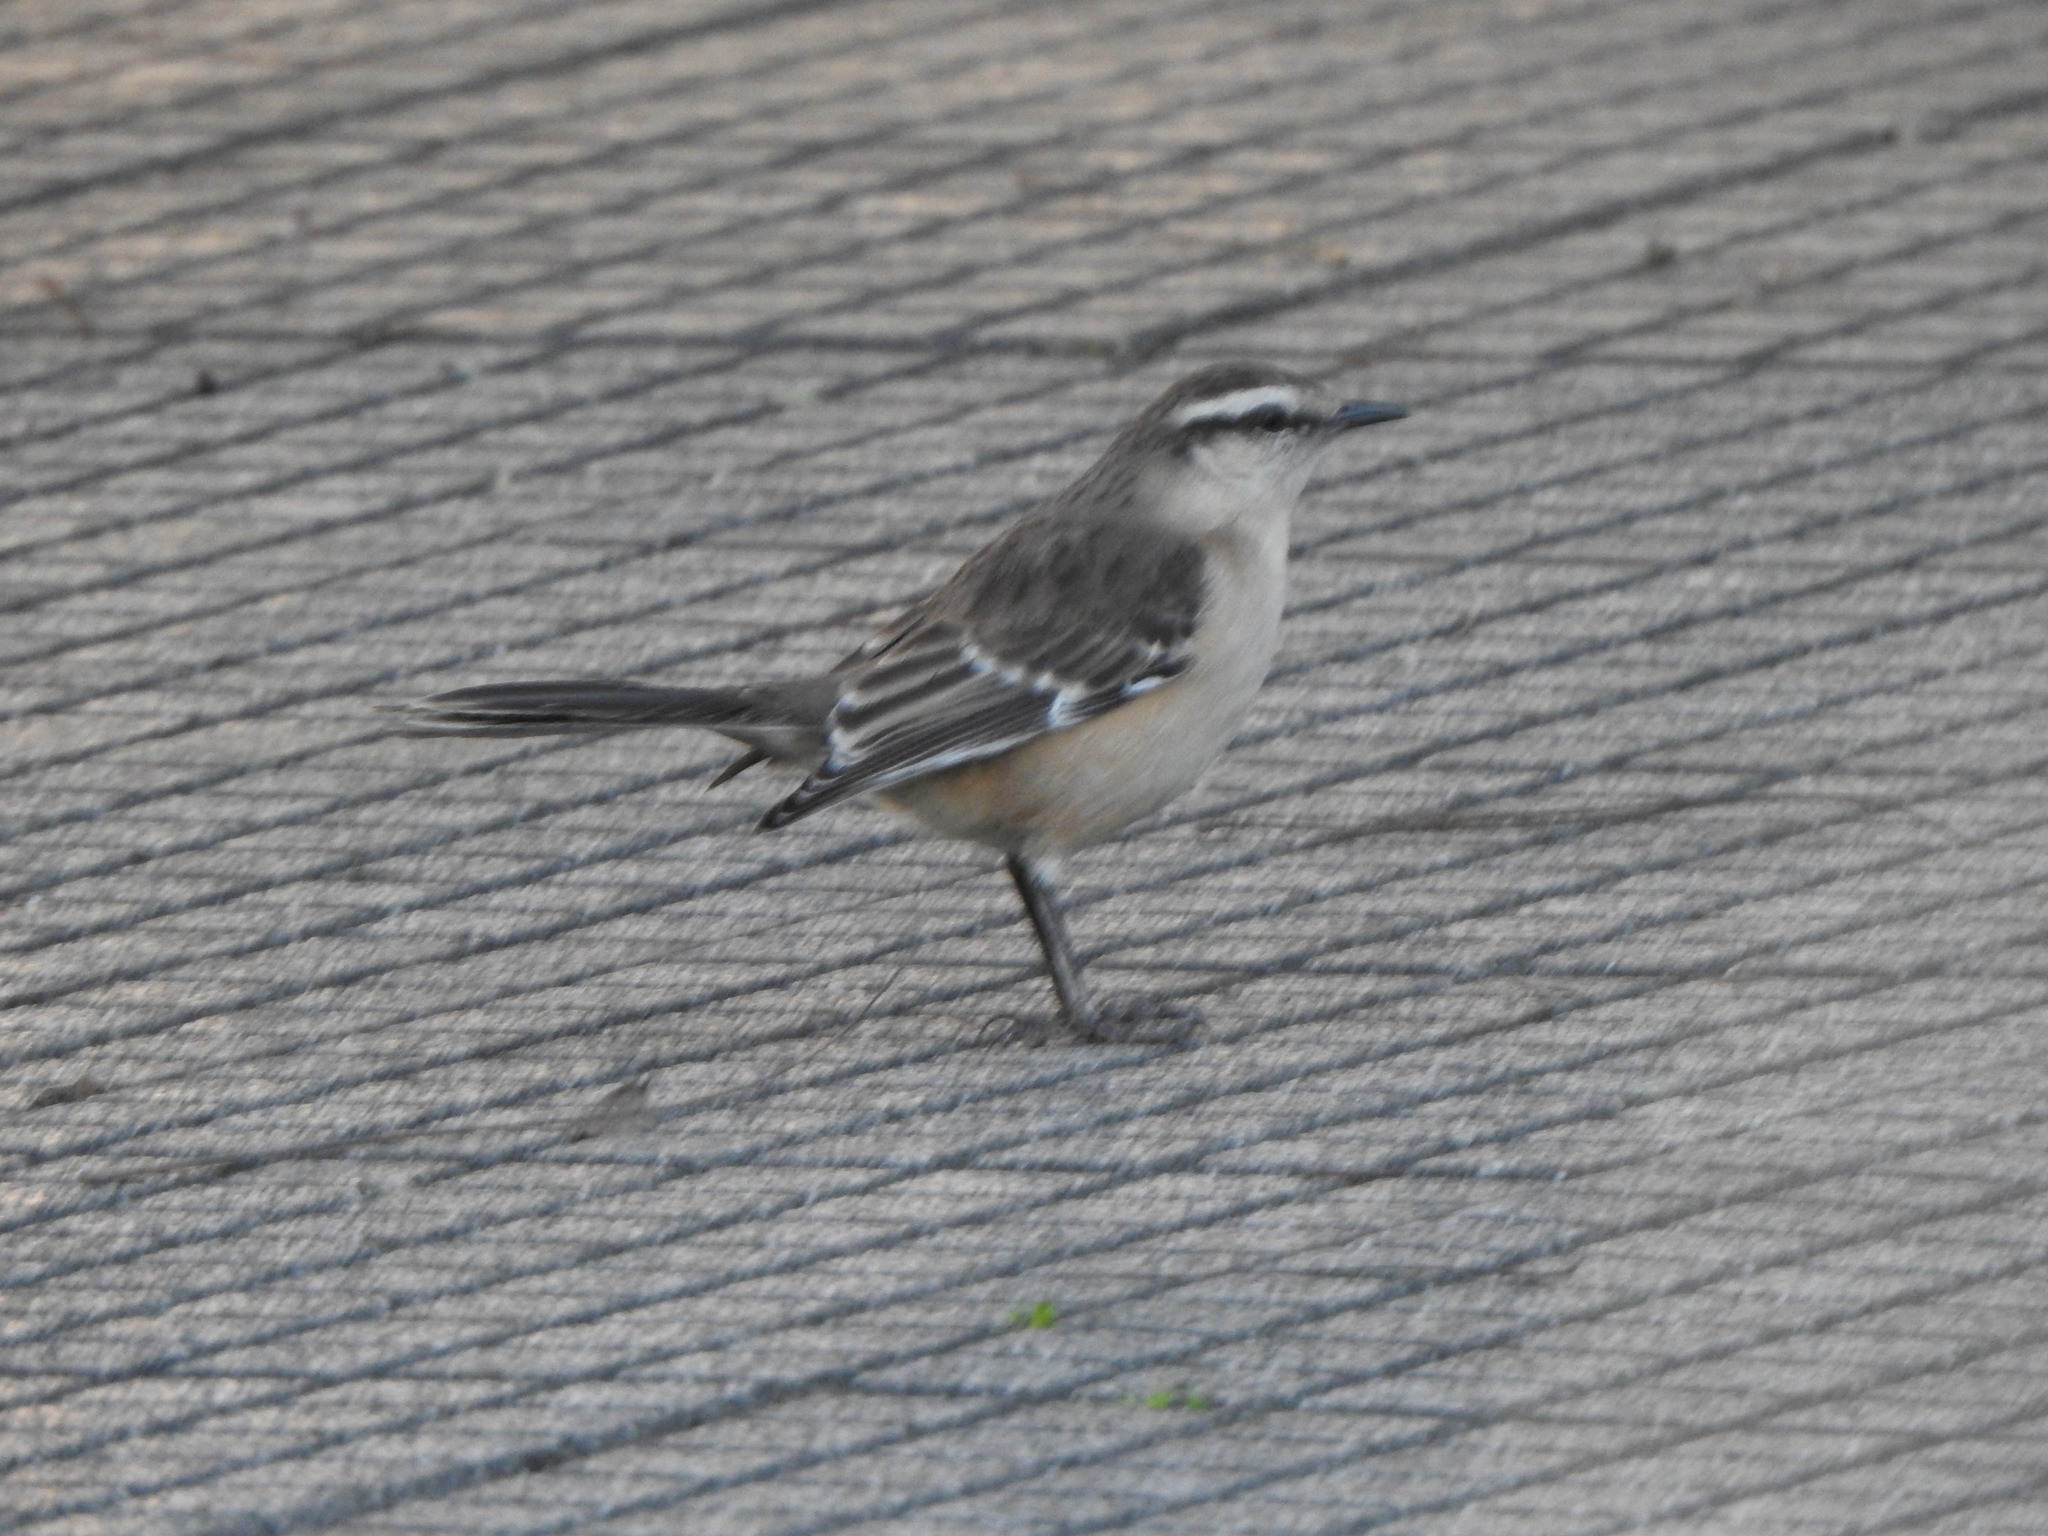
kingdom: Animalia
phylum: Chordata
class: Aves
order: Passeriformes
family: Mimidae
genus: Mimus
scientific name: Mimus saturninus
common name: Chalk-browed mockingbird
